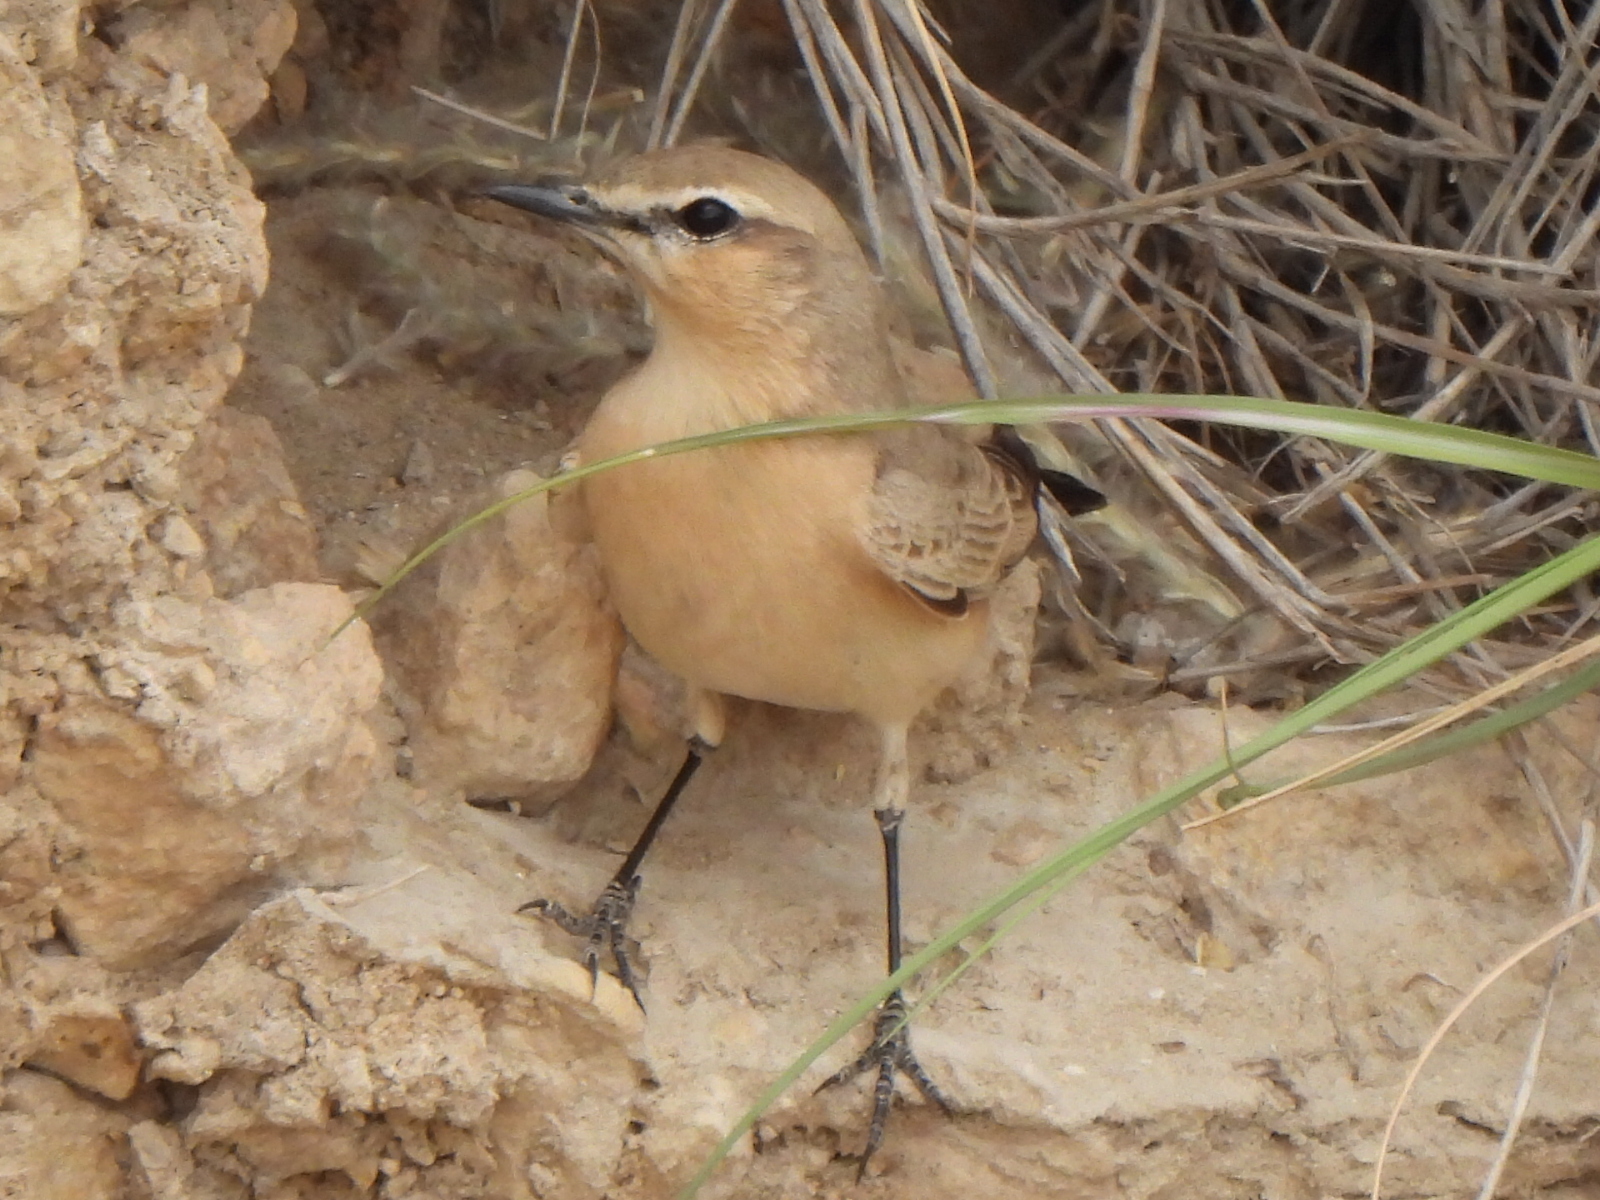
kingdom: Animalia
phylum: Chordata
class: Aves
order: Passeriformes
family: Muscicapidae
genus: Oenanthe
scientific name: Oenanthe isabellina
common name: Isabelline wheatear
